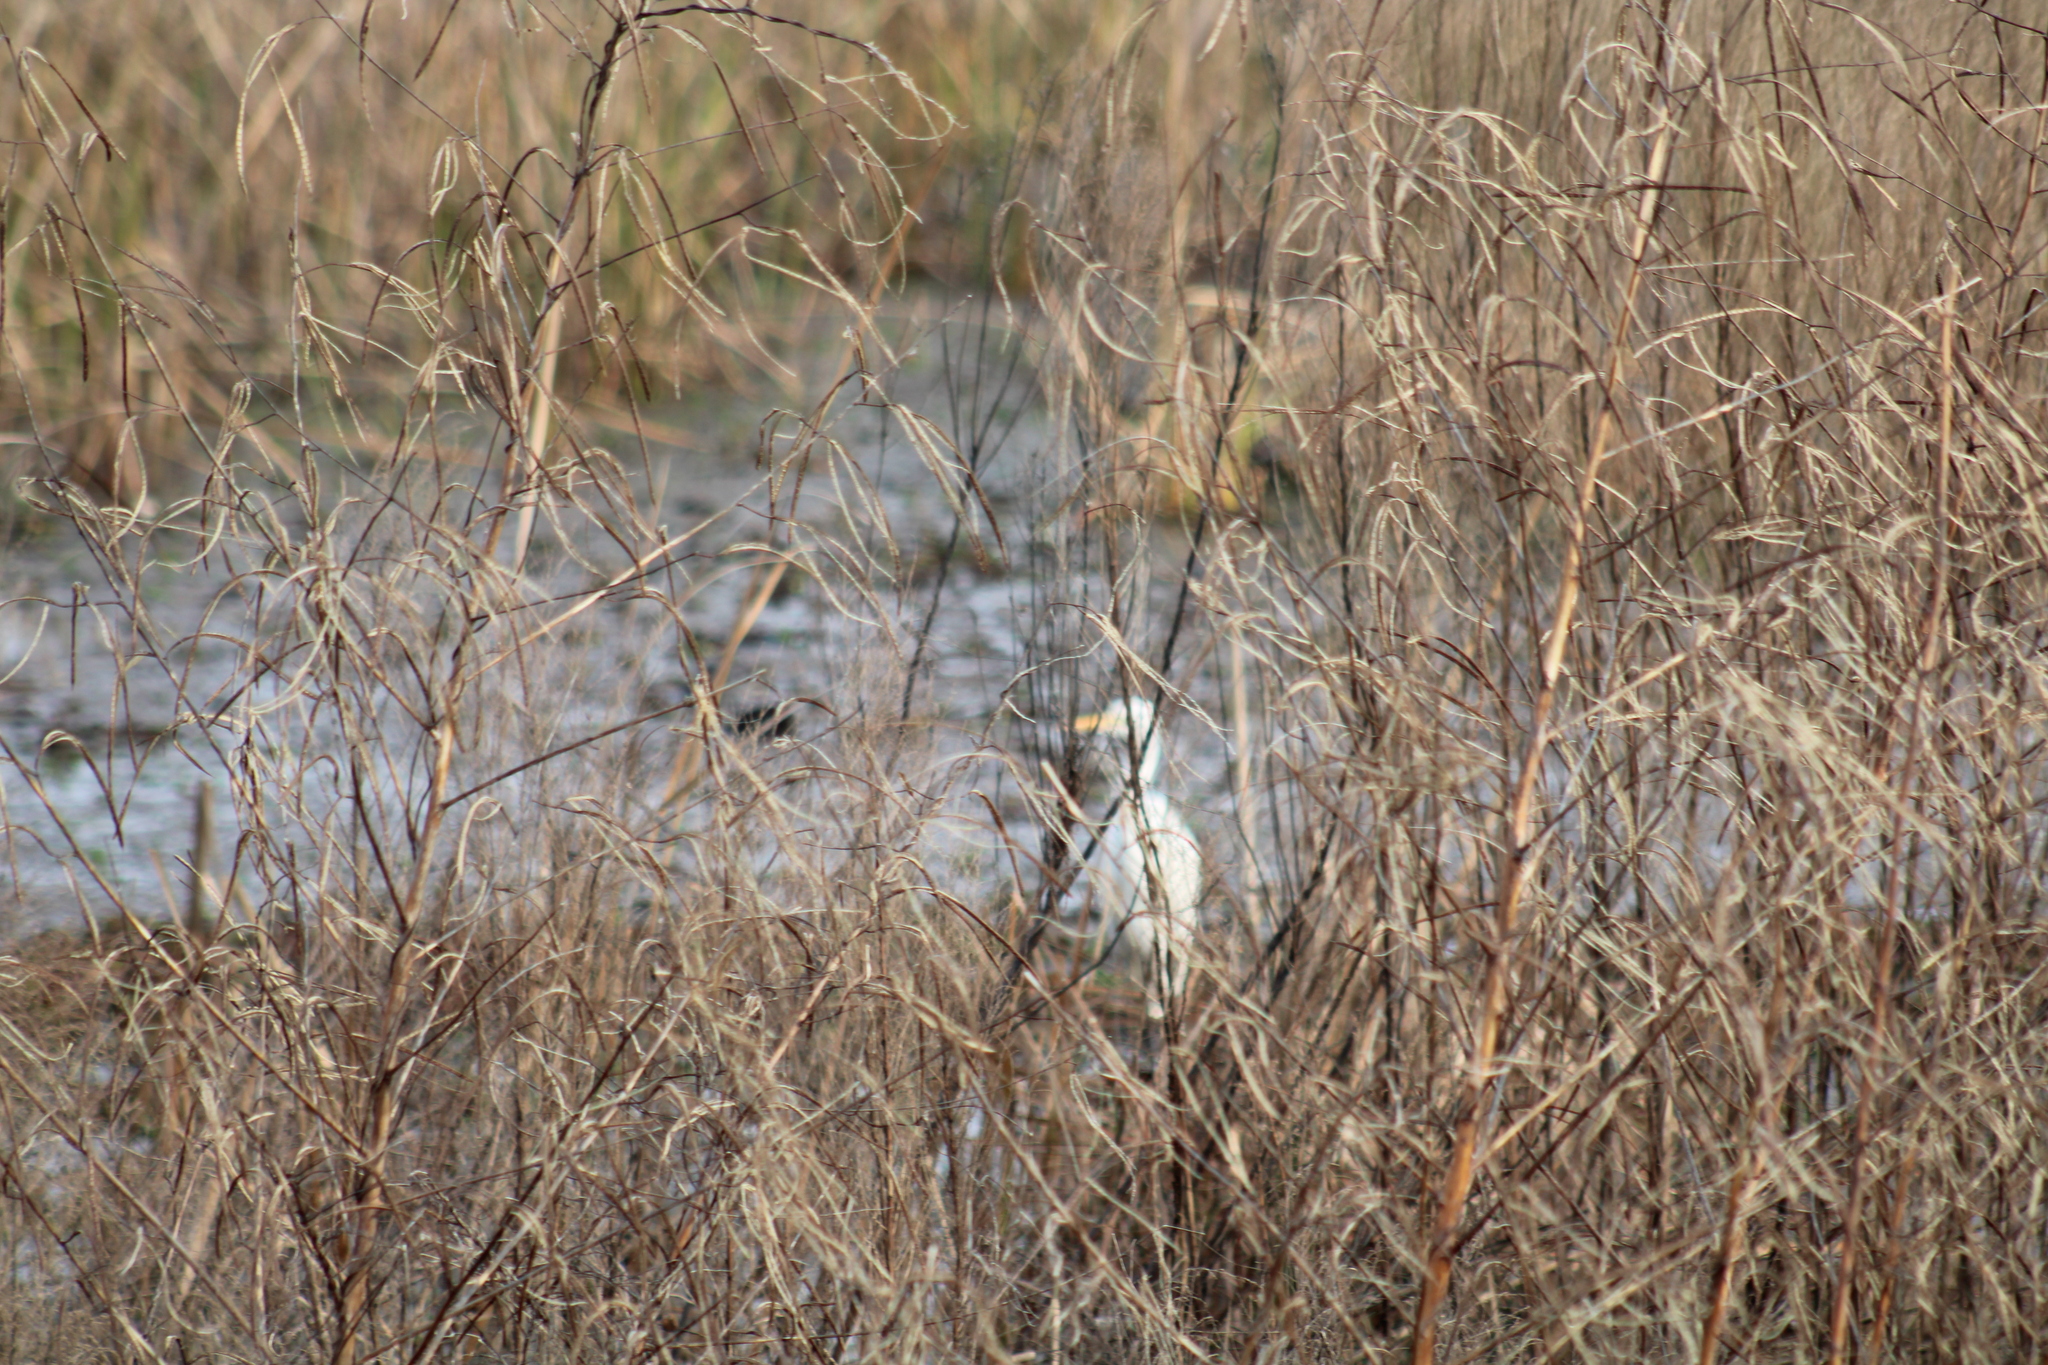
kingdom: Animalia
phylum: Chordata
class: Aves
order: Pelecaniformes
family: Ardeidae
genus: Ardea
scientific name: Ardea alba
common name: Great egret
